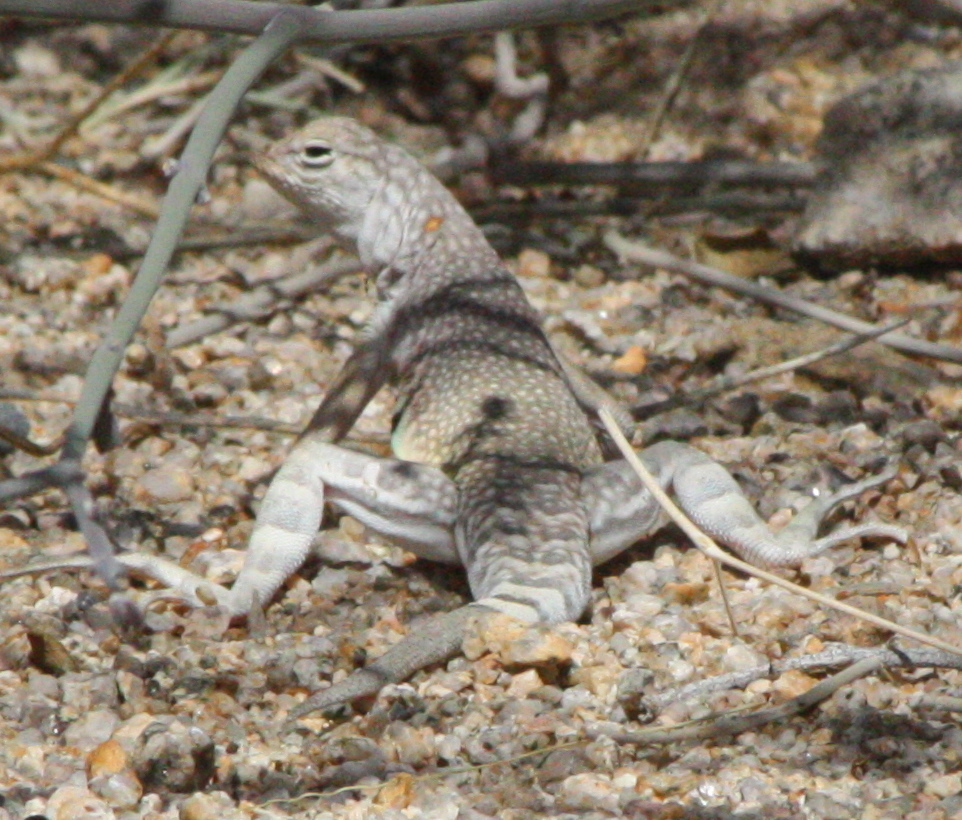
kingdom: Animalia
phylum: Chordata
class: Squamata
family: Phrynosomatidae
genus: Callisaurus
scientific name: Callisaurus draconoides
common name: Zebra-tailed lizard
